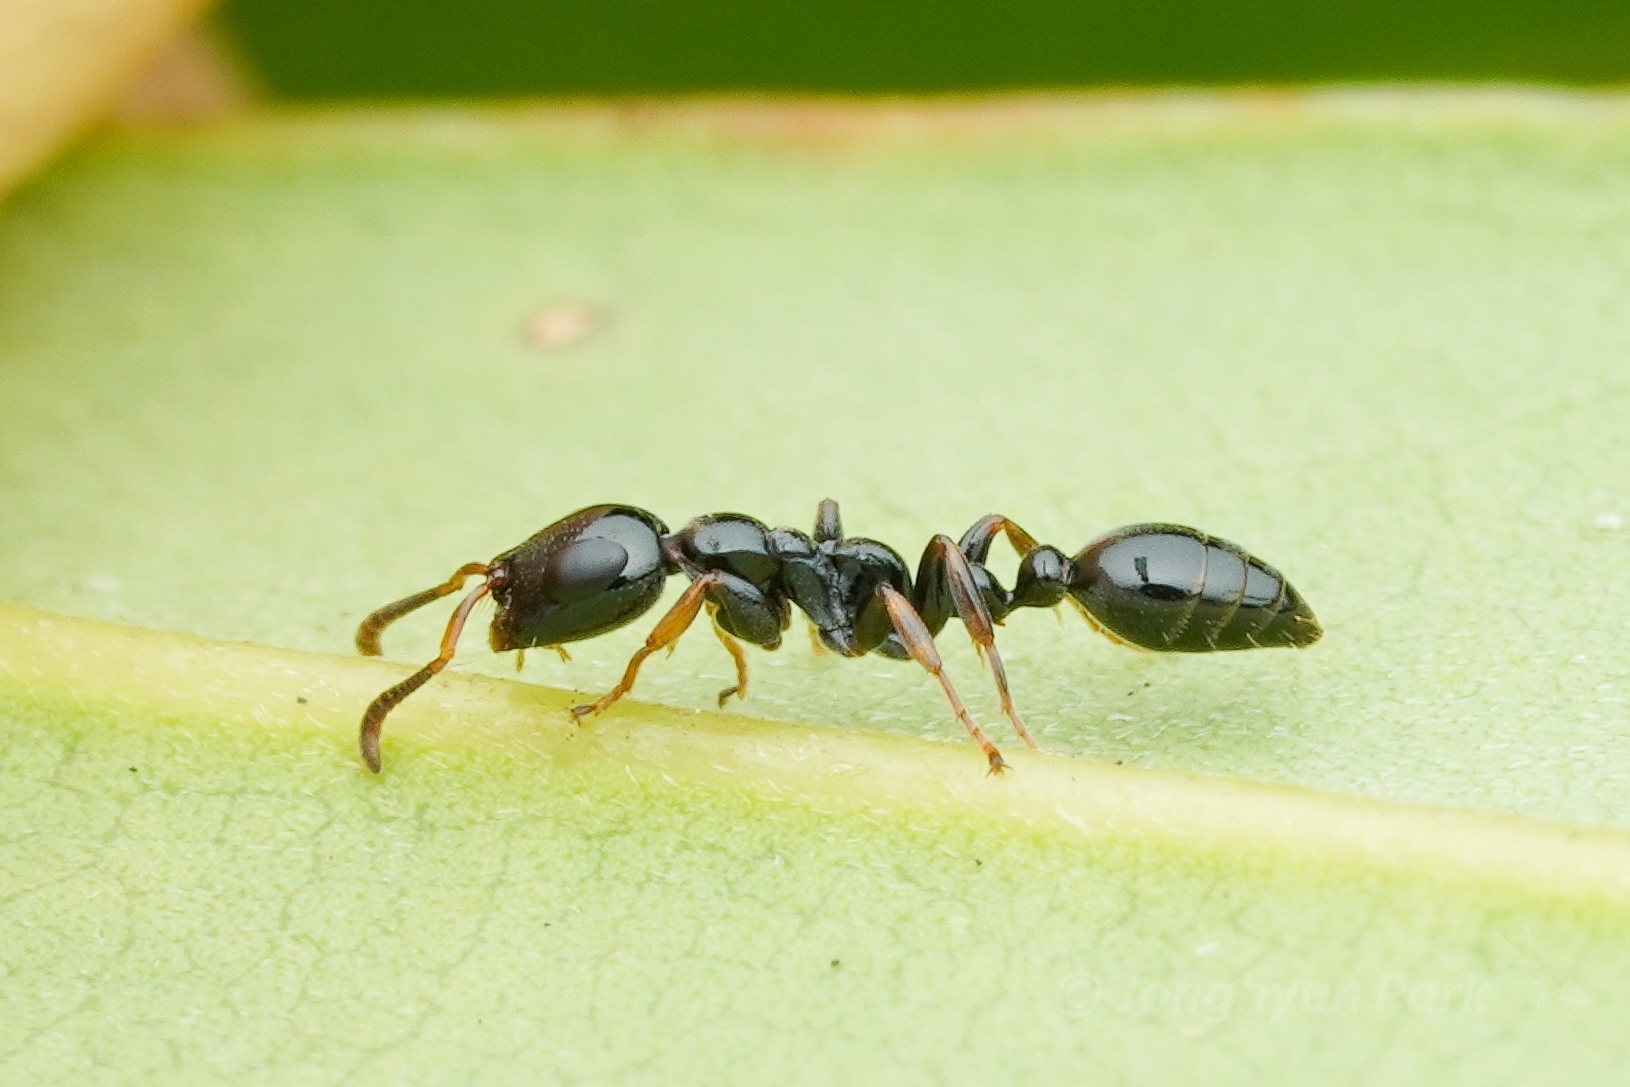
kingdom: Animalia
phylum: Arthropoda
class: Insecta
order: Hymenoptera
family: Formicidae
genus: Tetraponera
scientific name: Tetraponera nitida
